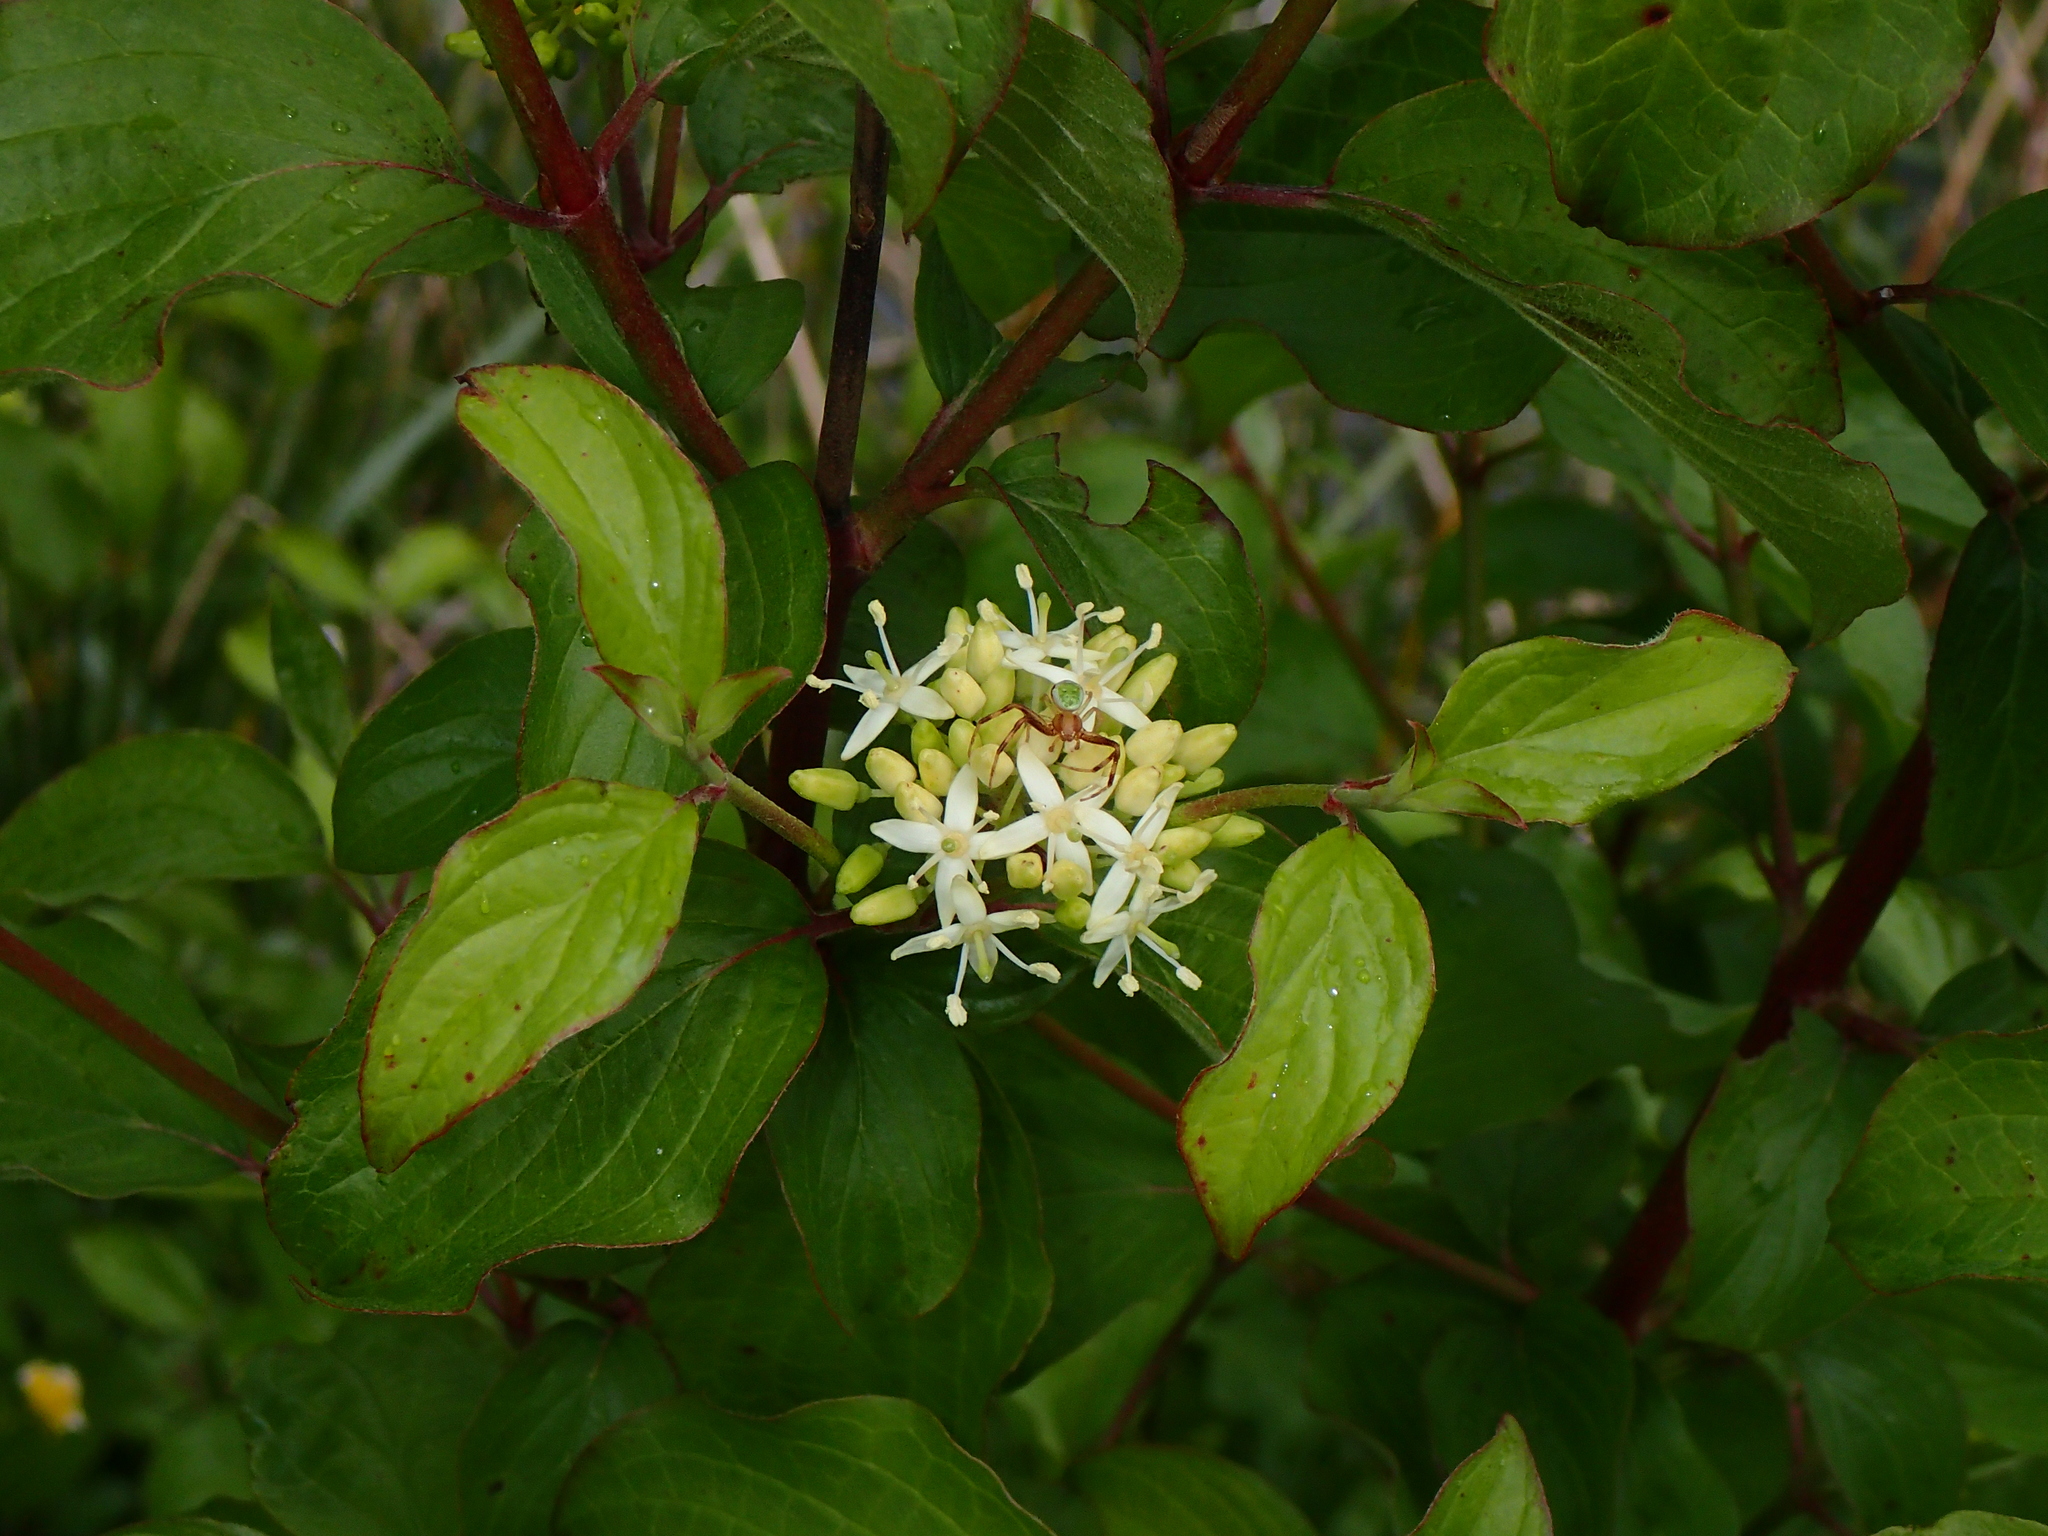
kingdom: Plantae
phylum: Tracheophyta
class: Magnoliopsida
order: Cornales
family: Cornaceae
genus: Cornus
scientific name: Cornus sanguinea
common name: Dogwood
